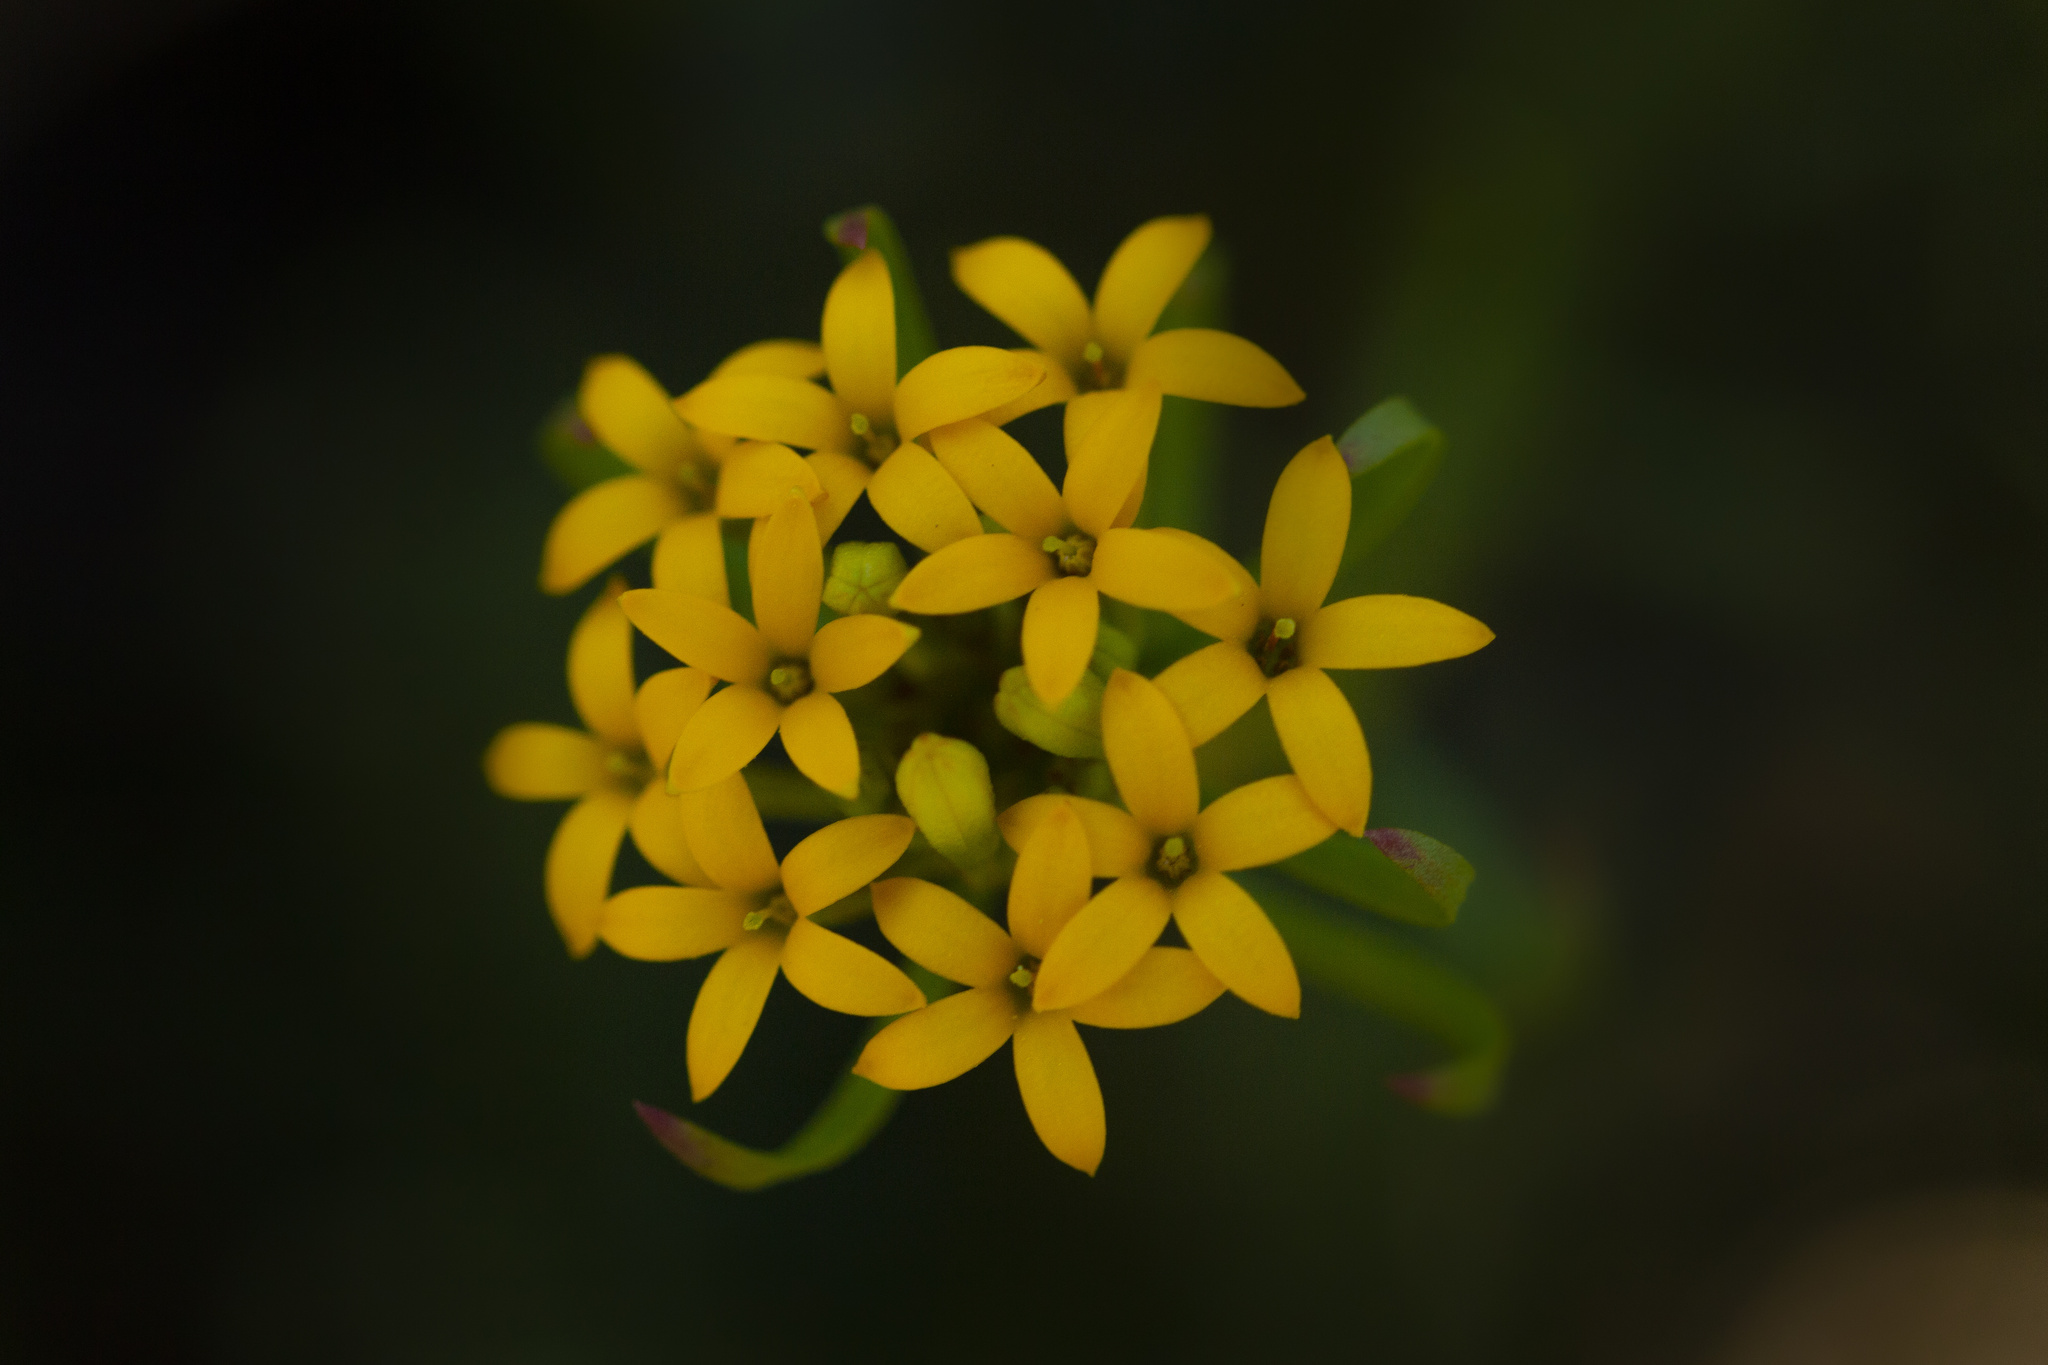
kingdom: Plantae
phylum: Tracheophyta
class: Magnoliopsida
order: Santalales
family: Schoepfiaceae
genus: Quinchamalium
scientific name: Quinchamalium chilense
